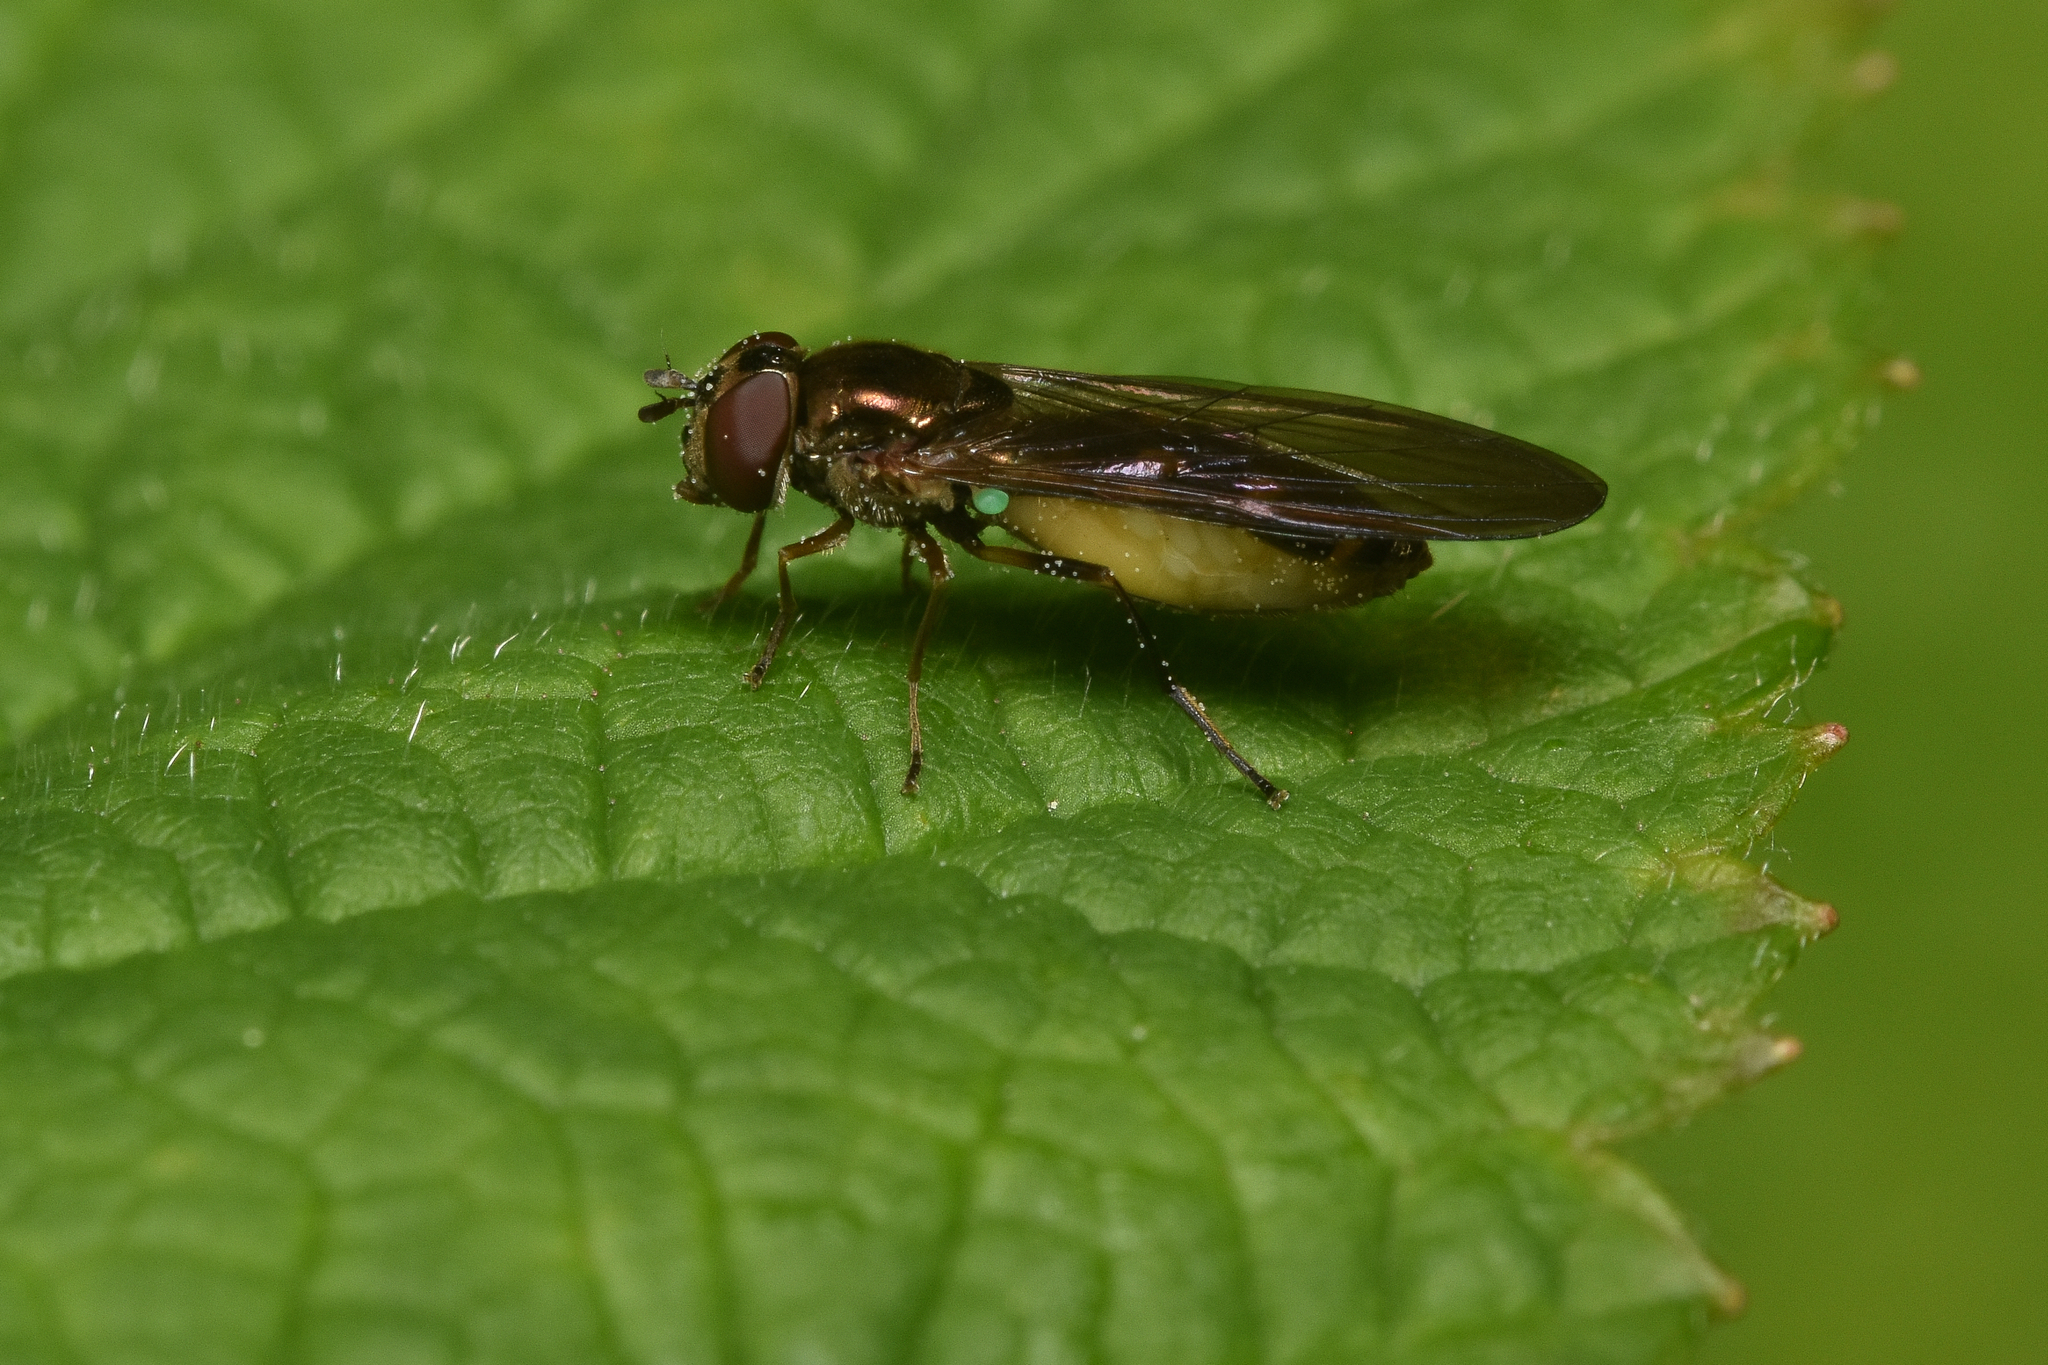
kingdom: Animalia
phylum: Arthropoda
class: Insecta
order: Diptera
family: Syrphidae
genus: Melanostoma
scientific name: Melanostoma mellina
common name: Hover fly
